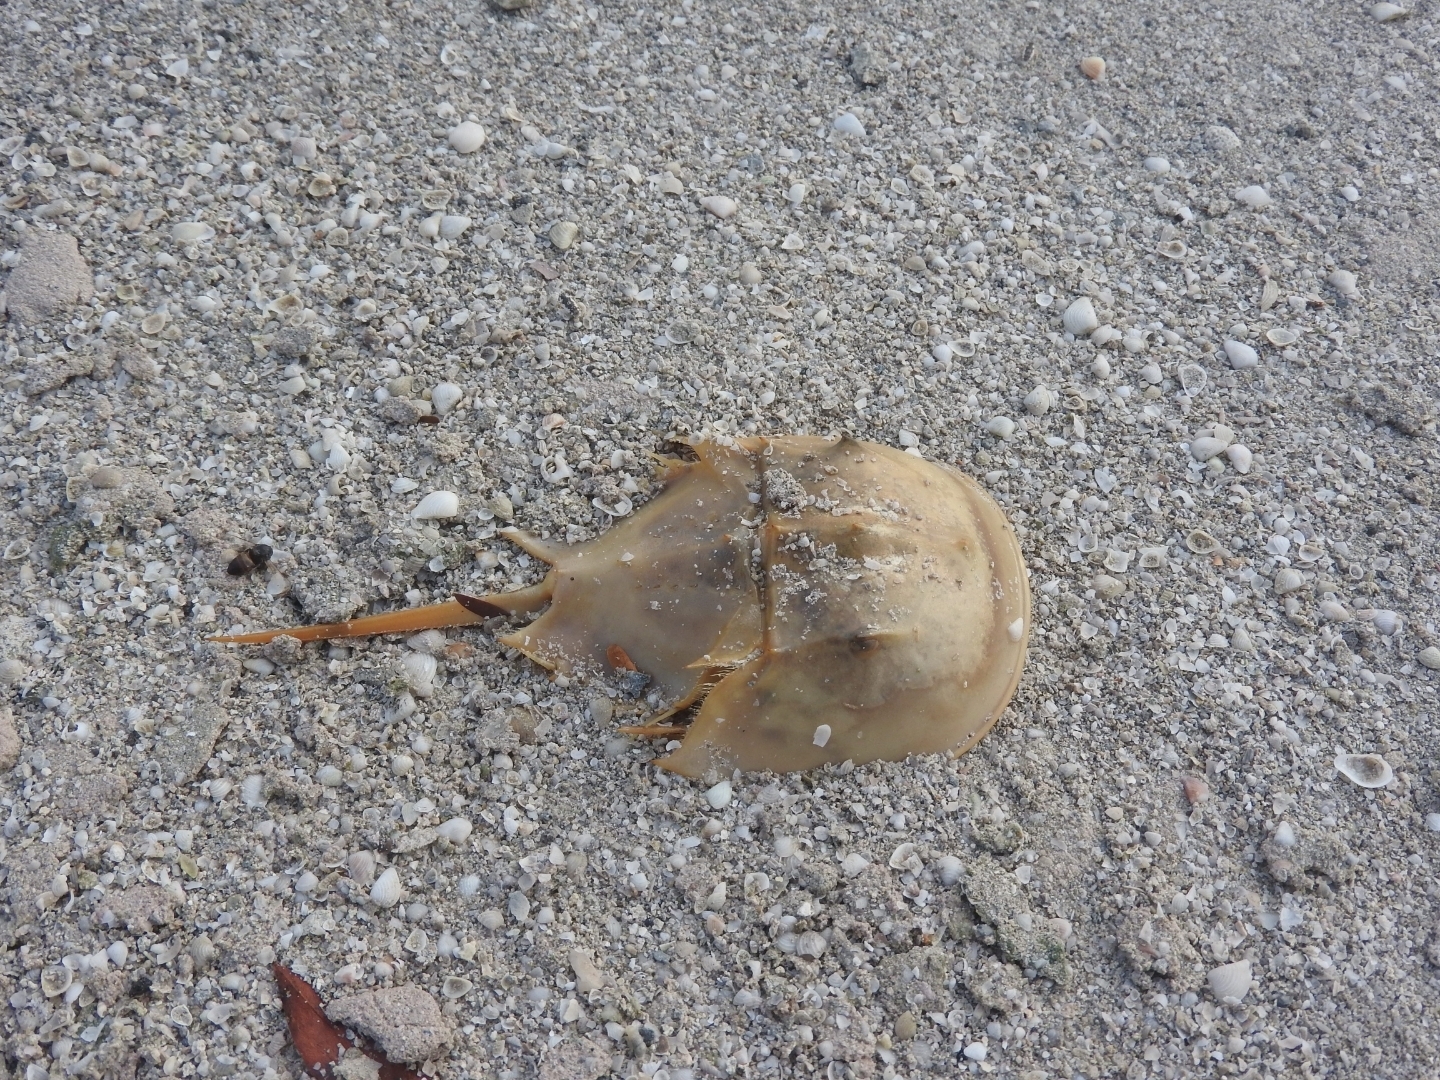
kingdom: Animalia
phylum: Arthropoda
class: Merostomata
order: Xiphosurida
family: Limulidae
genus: Limulus
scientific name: Limulus polyphemus
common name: Horseshoe crab
